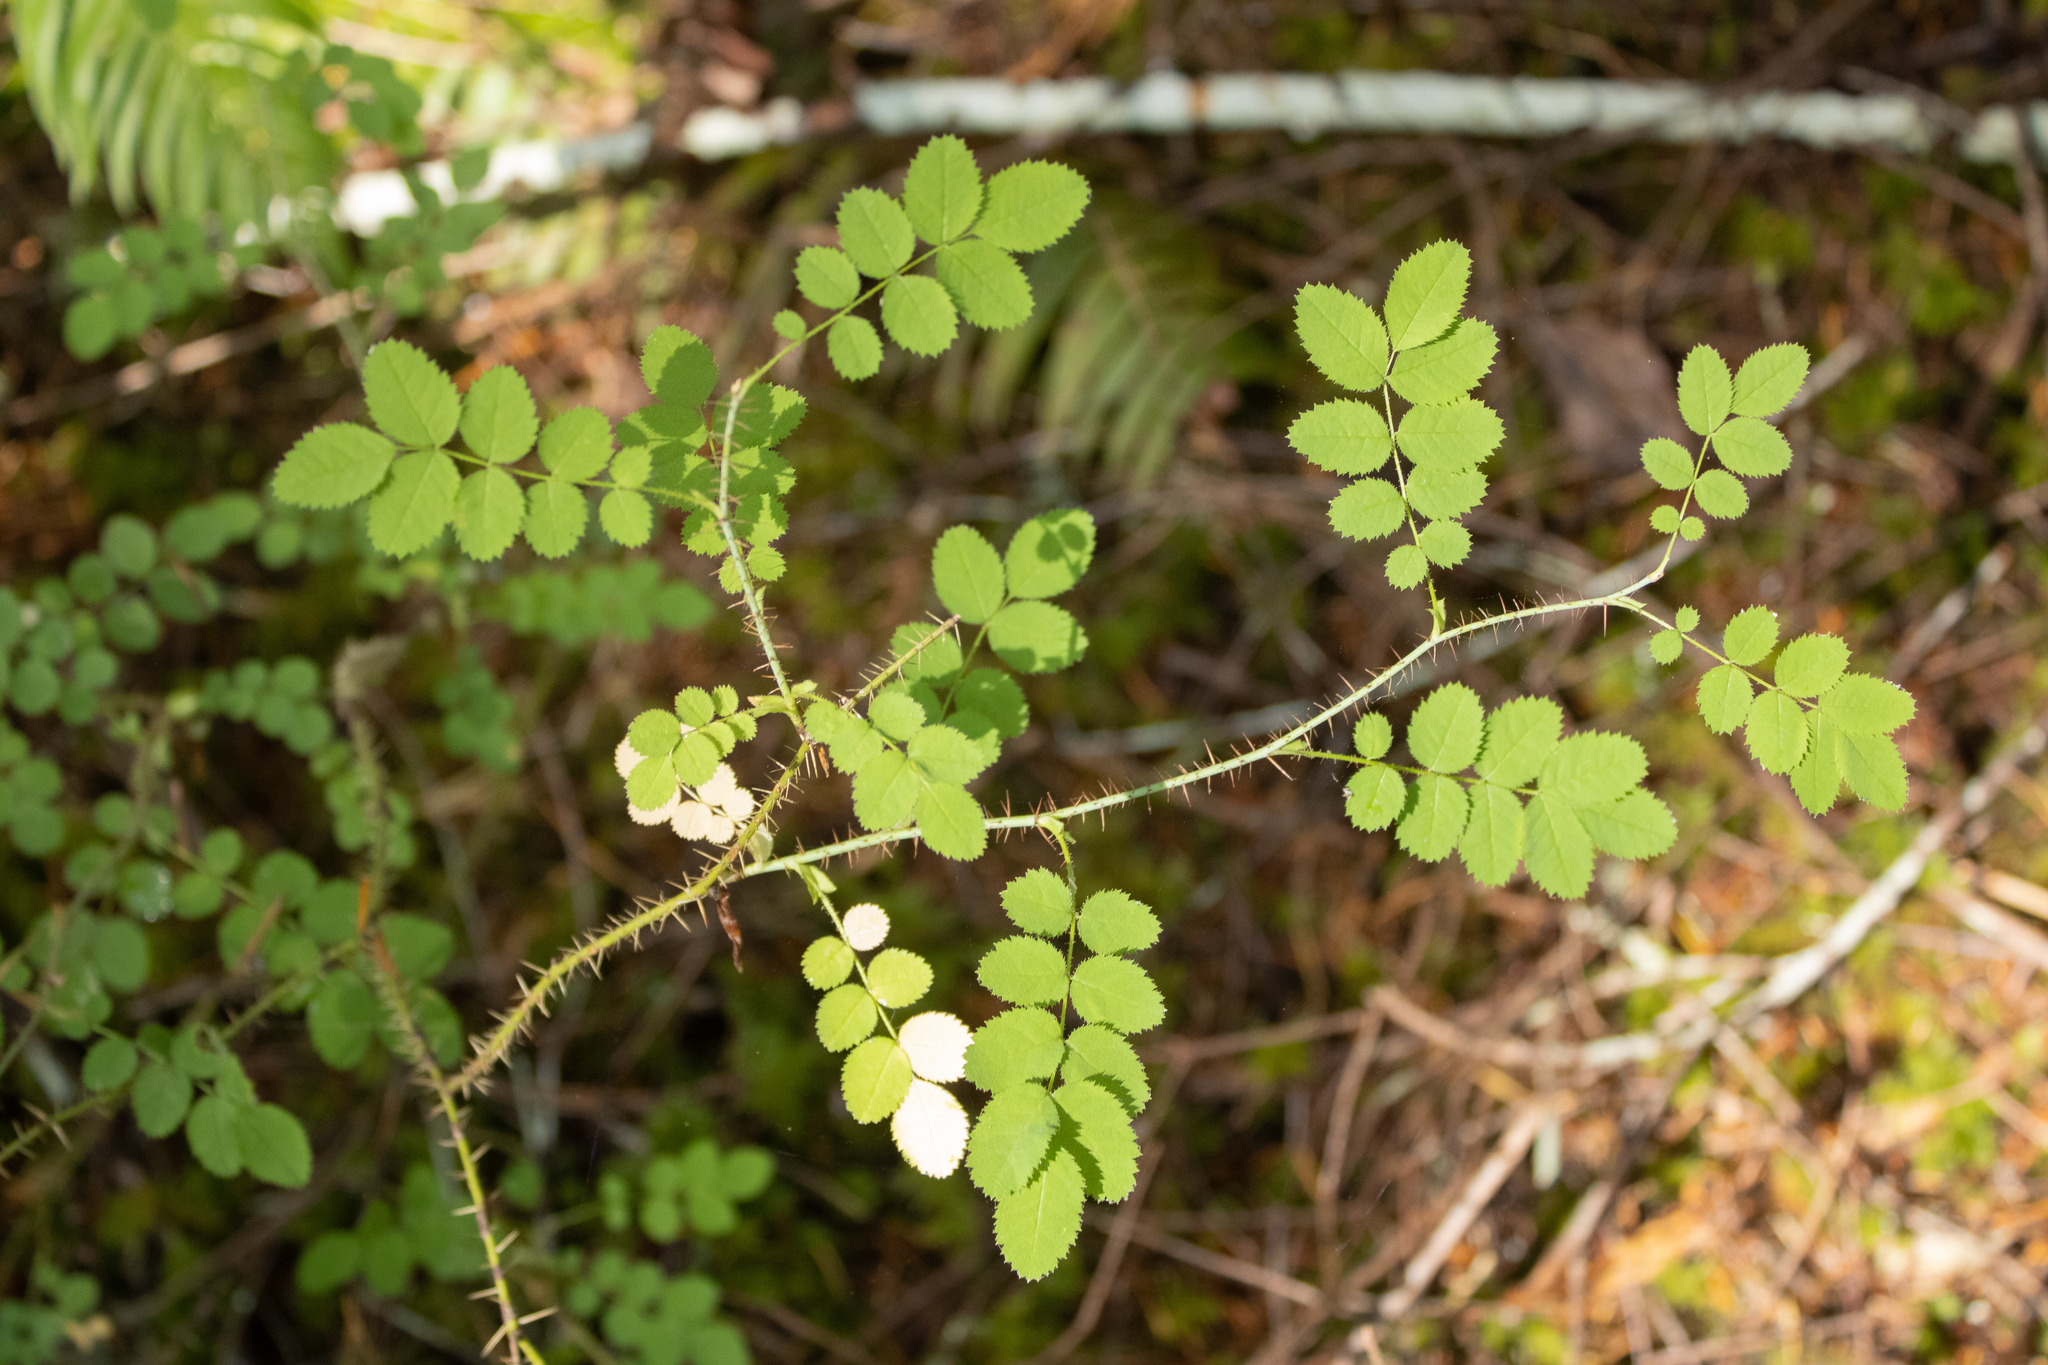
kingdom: Plantae
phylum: Tracheophyta
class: Magnoliopsida
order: Rosales
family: Rosaceae
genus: Rosa
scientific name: Rosa gymnocarpa
